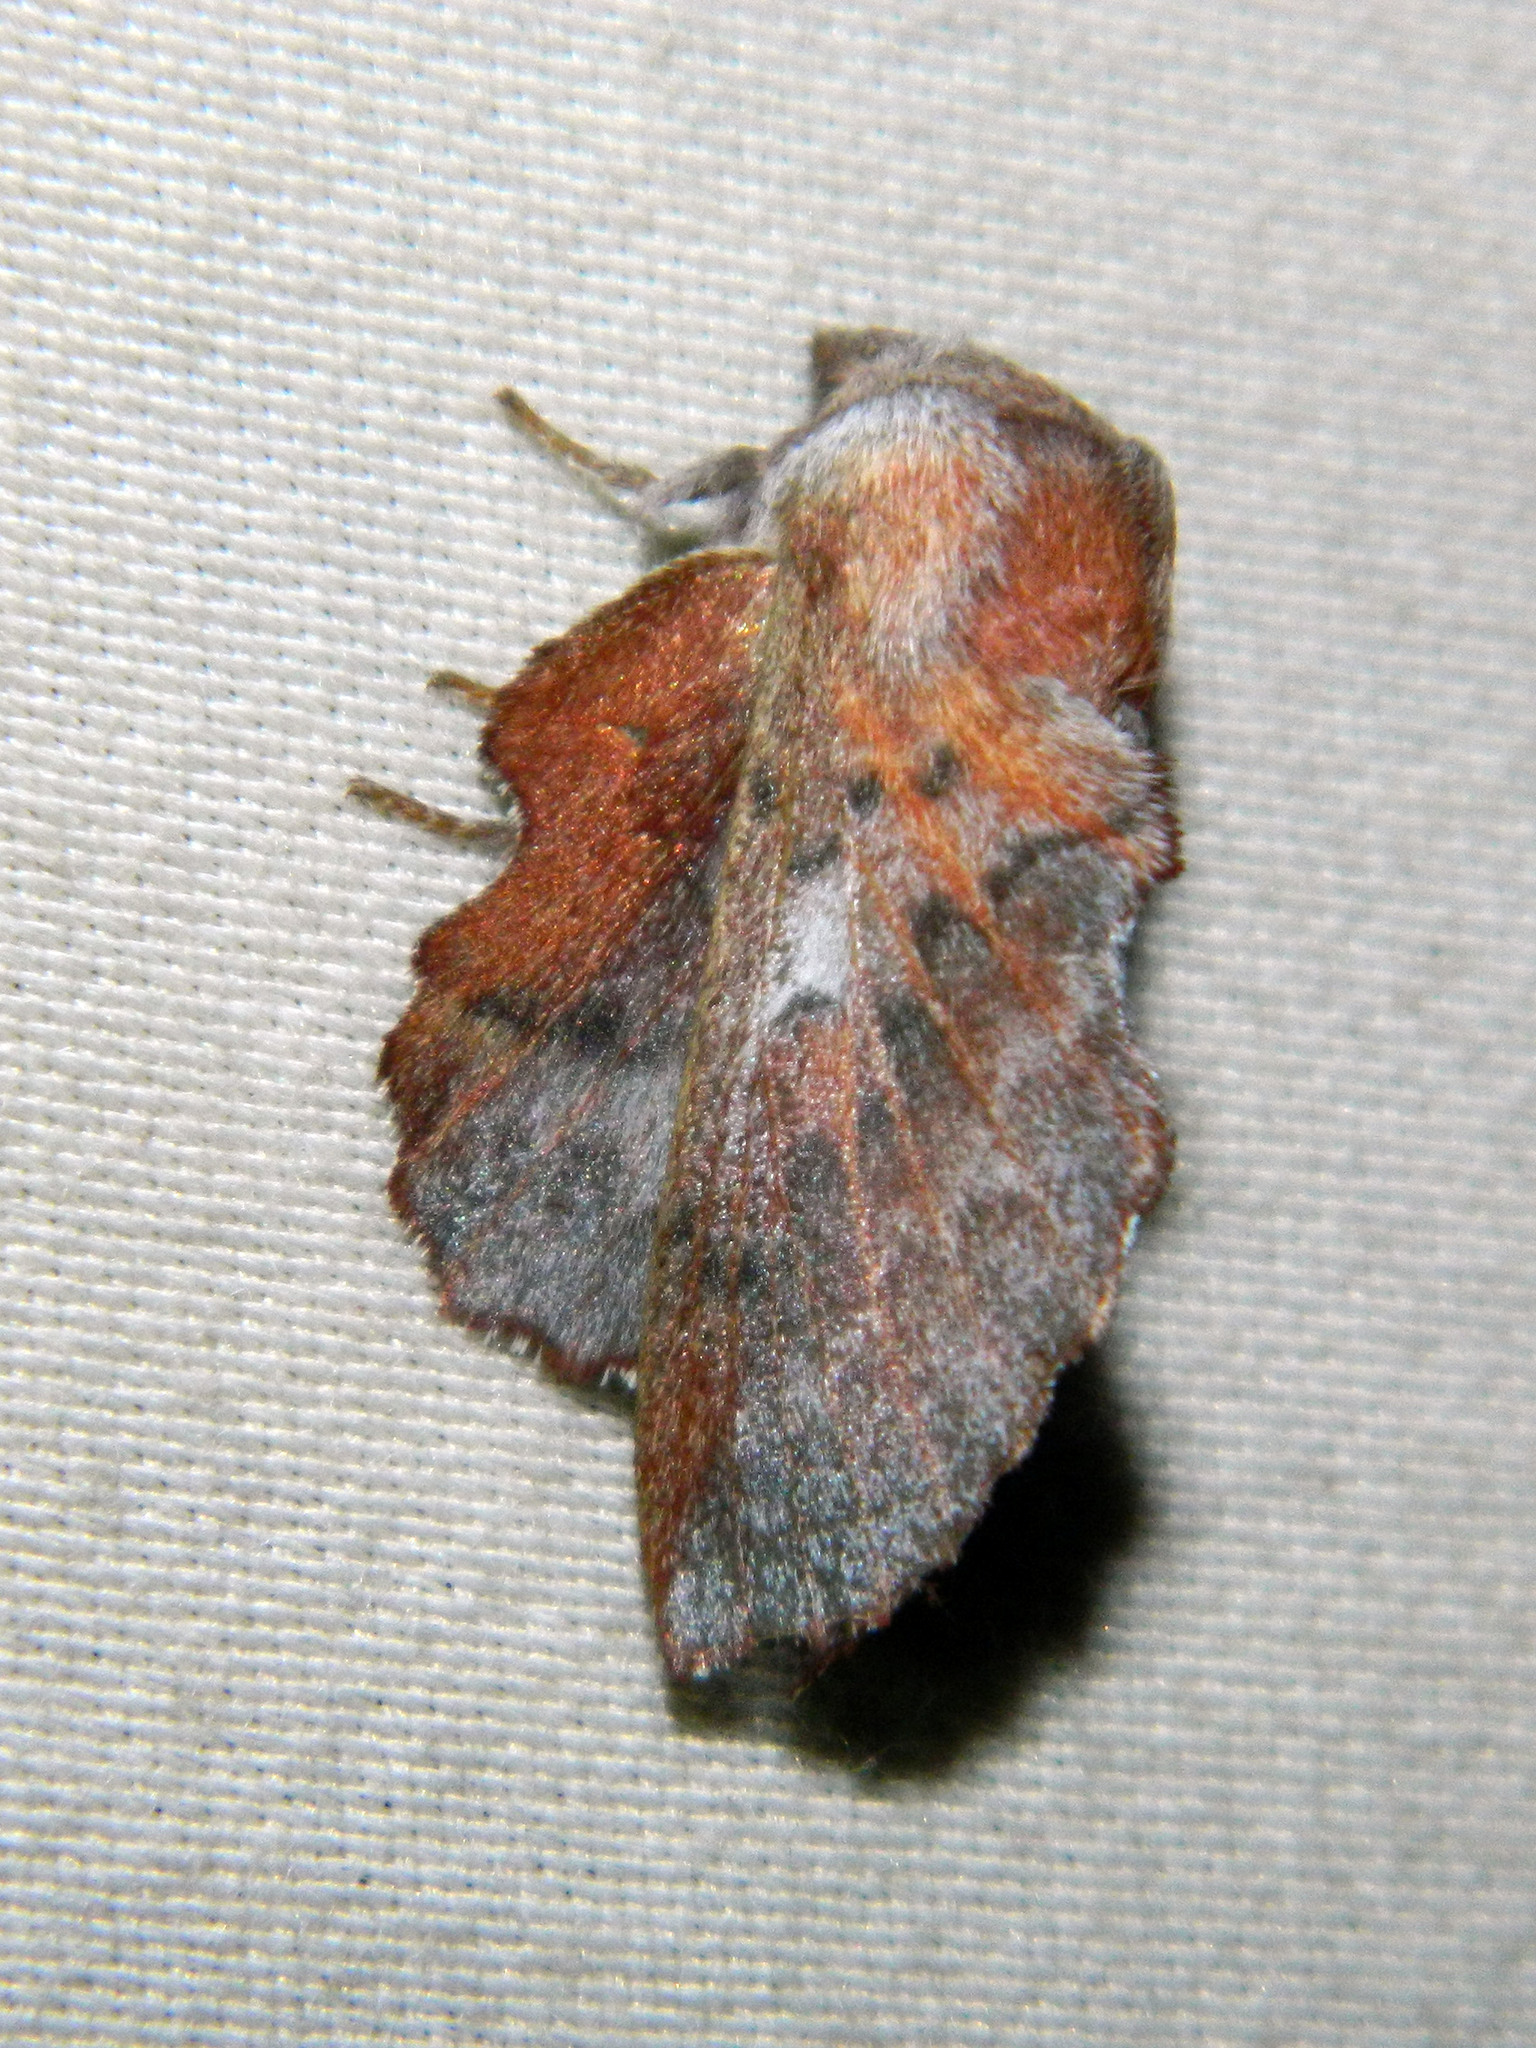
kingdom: Animalia
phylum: Arthropoda
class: Insecta
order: Lepidoptera
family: Lasiocampidae
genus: Phyllodesma
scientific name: Phyllodesma americana
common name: American lappet moth
